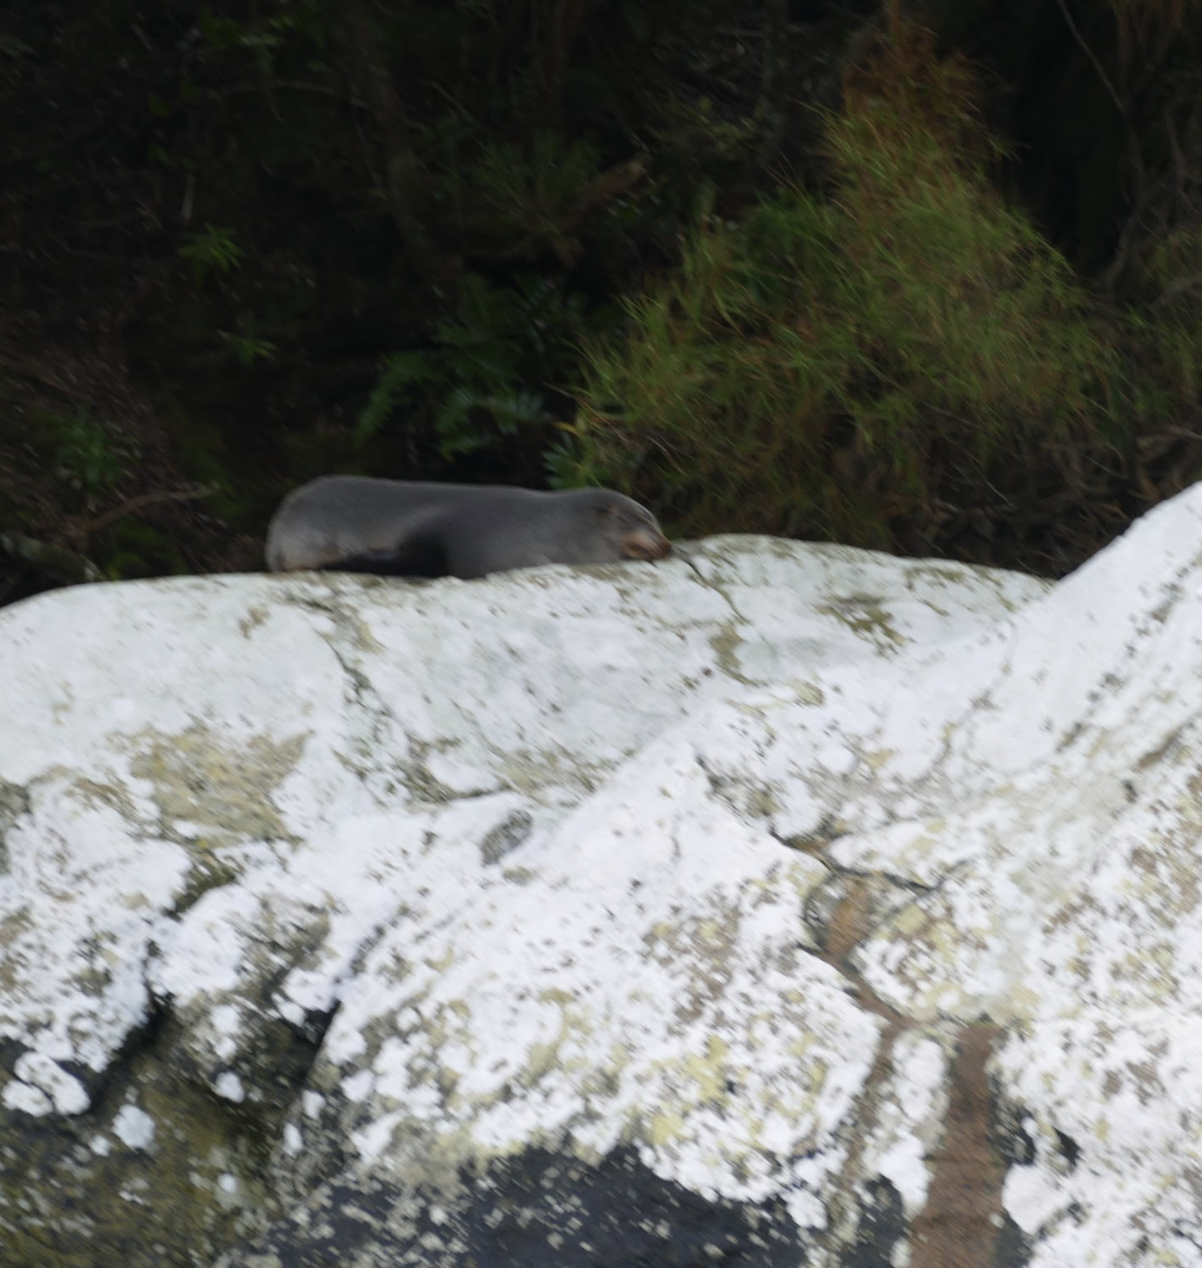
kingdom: Animalia
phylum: Chordata
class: Mammalia
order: Carnivora
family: Otariidae
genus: Arctocephalus
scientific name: Arctocephalus forsteri
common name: New zealand fur seal
